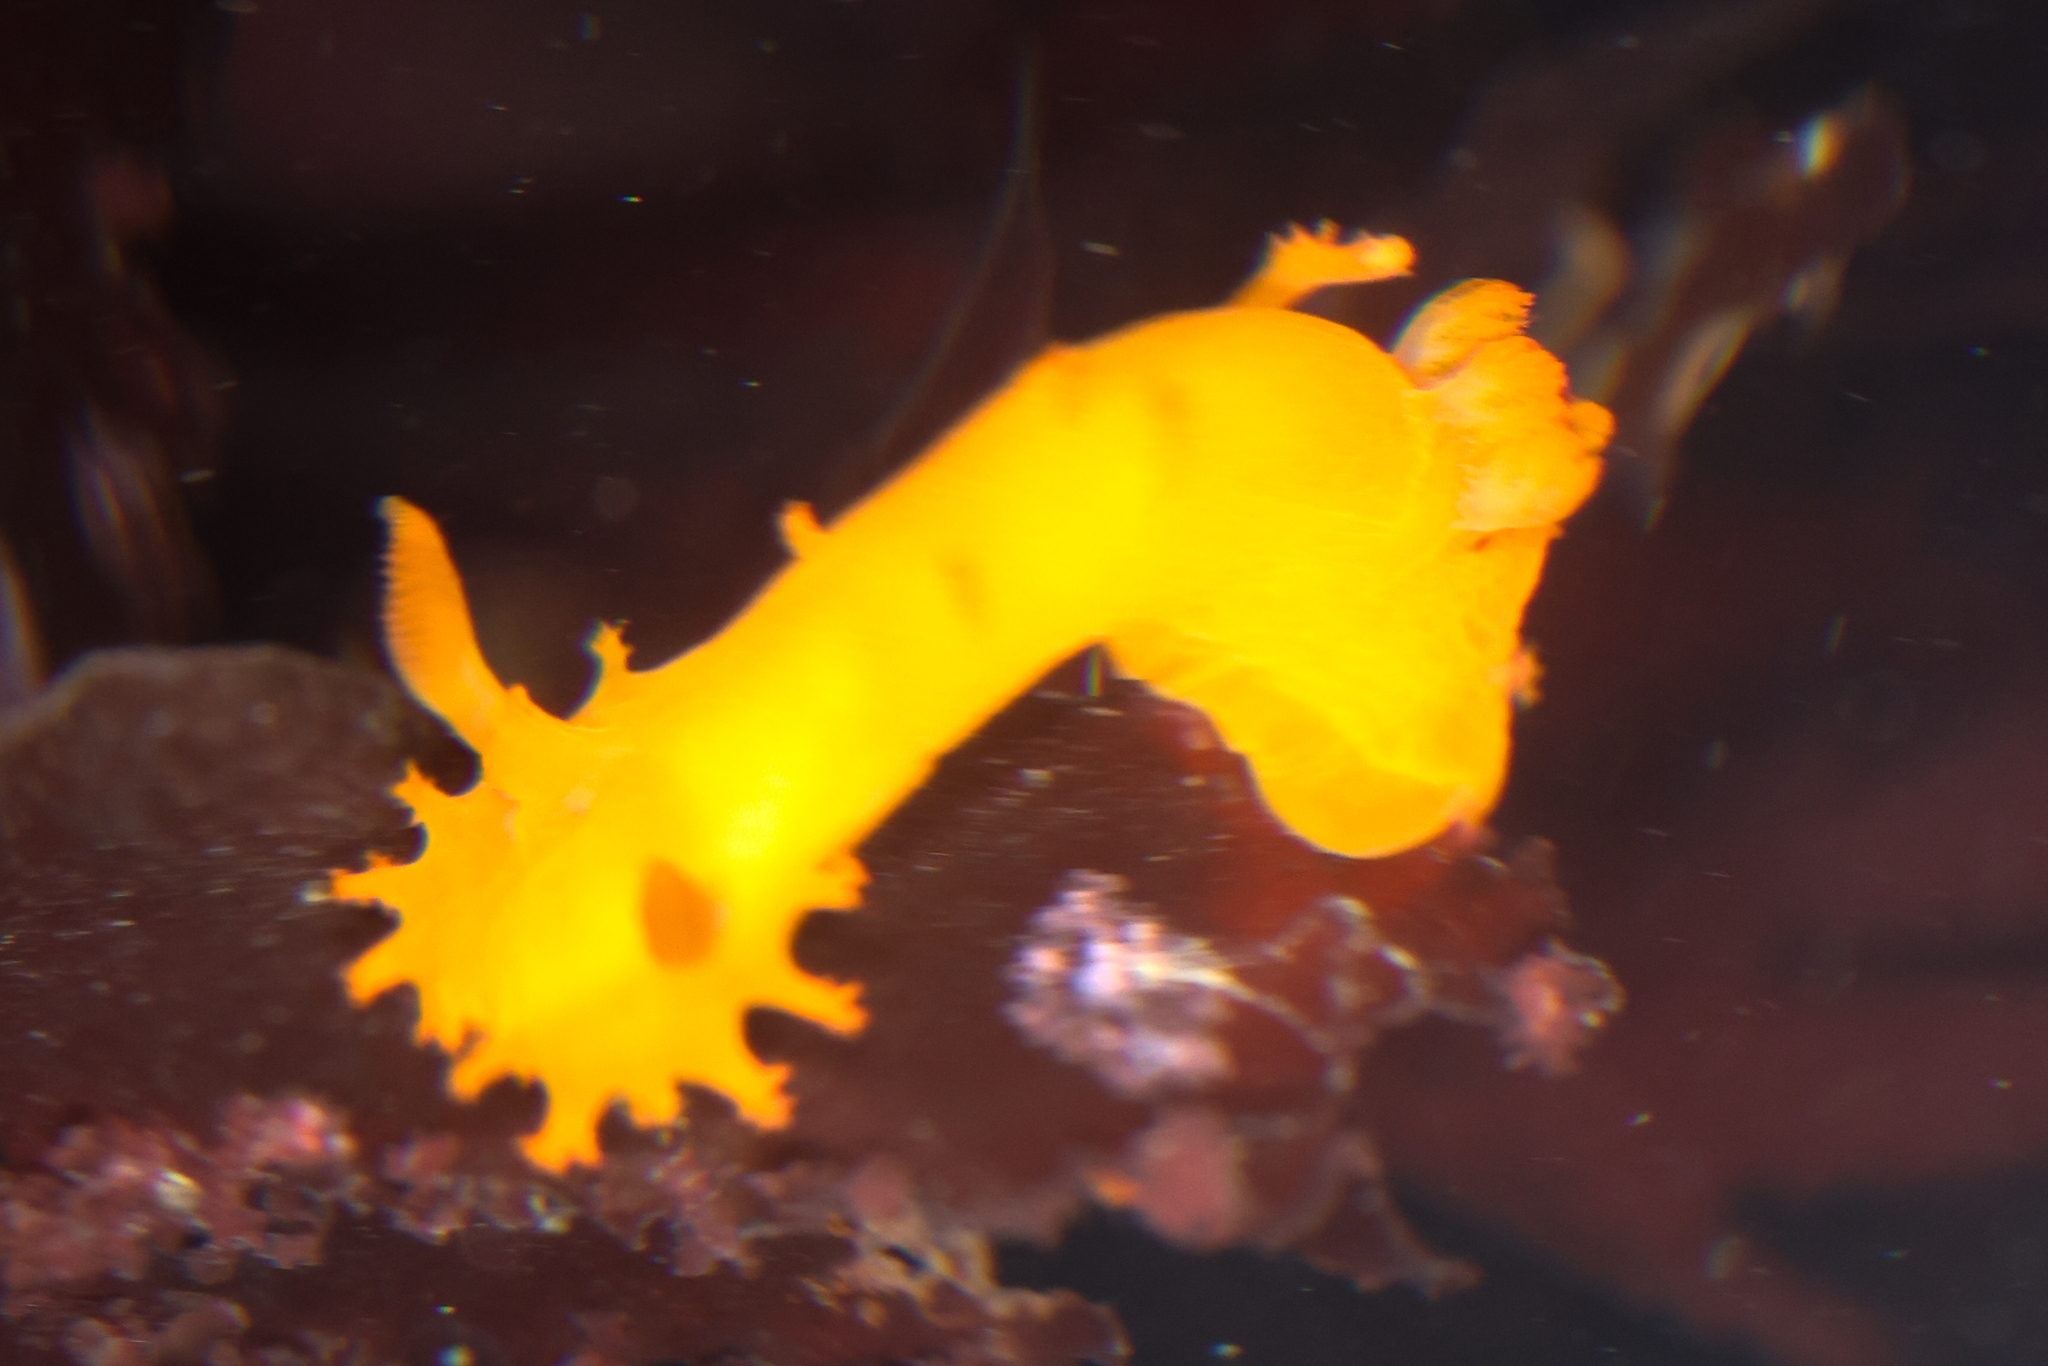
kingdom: Animalia
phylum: Mollusca
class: Gastropoda
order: Nudibranchia
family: Polyceridae
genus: Triopha
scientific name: Triopha maculata
